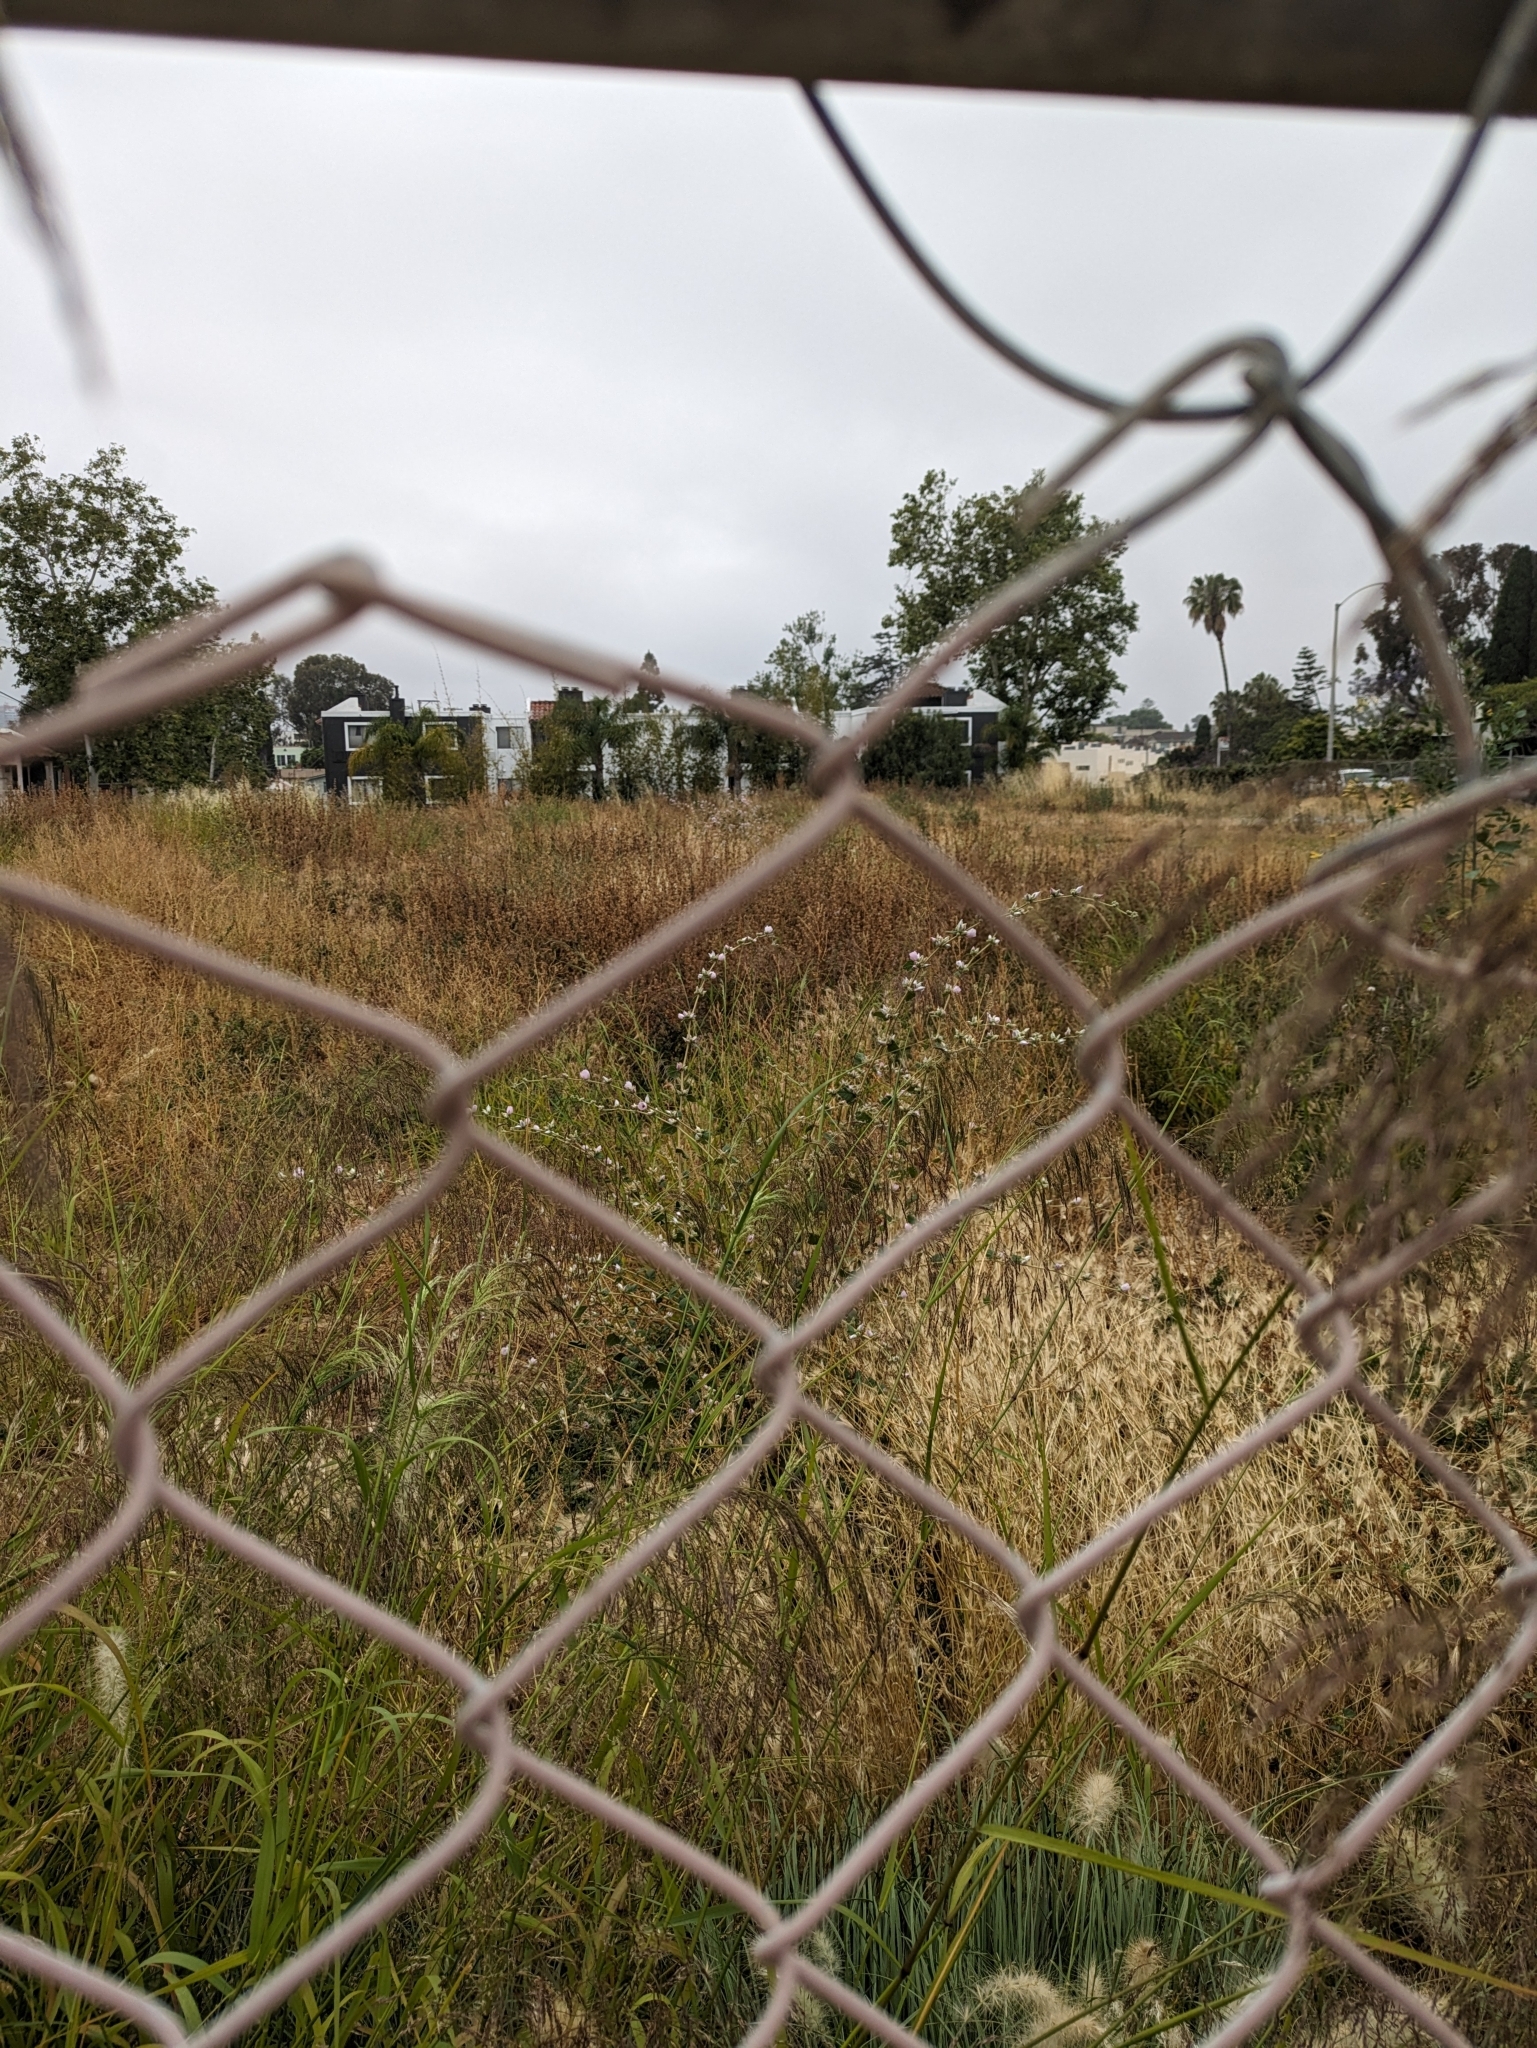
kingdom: Plantae
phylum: Tracheophyta
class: Magnoliopsida
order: Malvales
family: Malvaceae
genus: Malacothamnus
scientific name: Malacothamnus fasciculatus
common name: Sant cruz island bush-mallow
